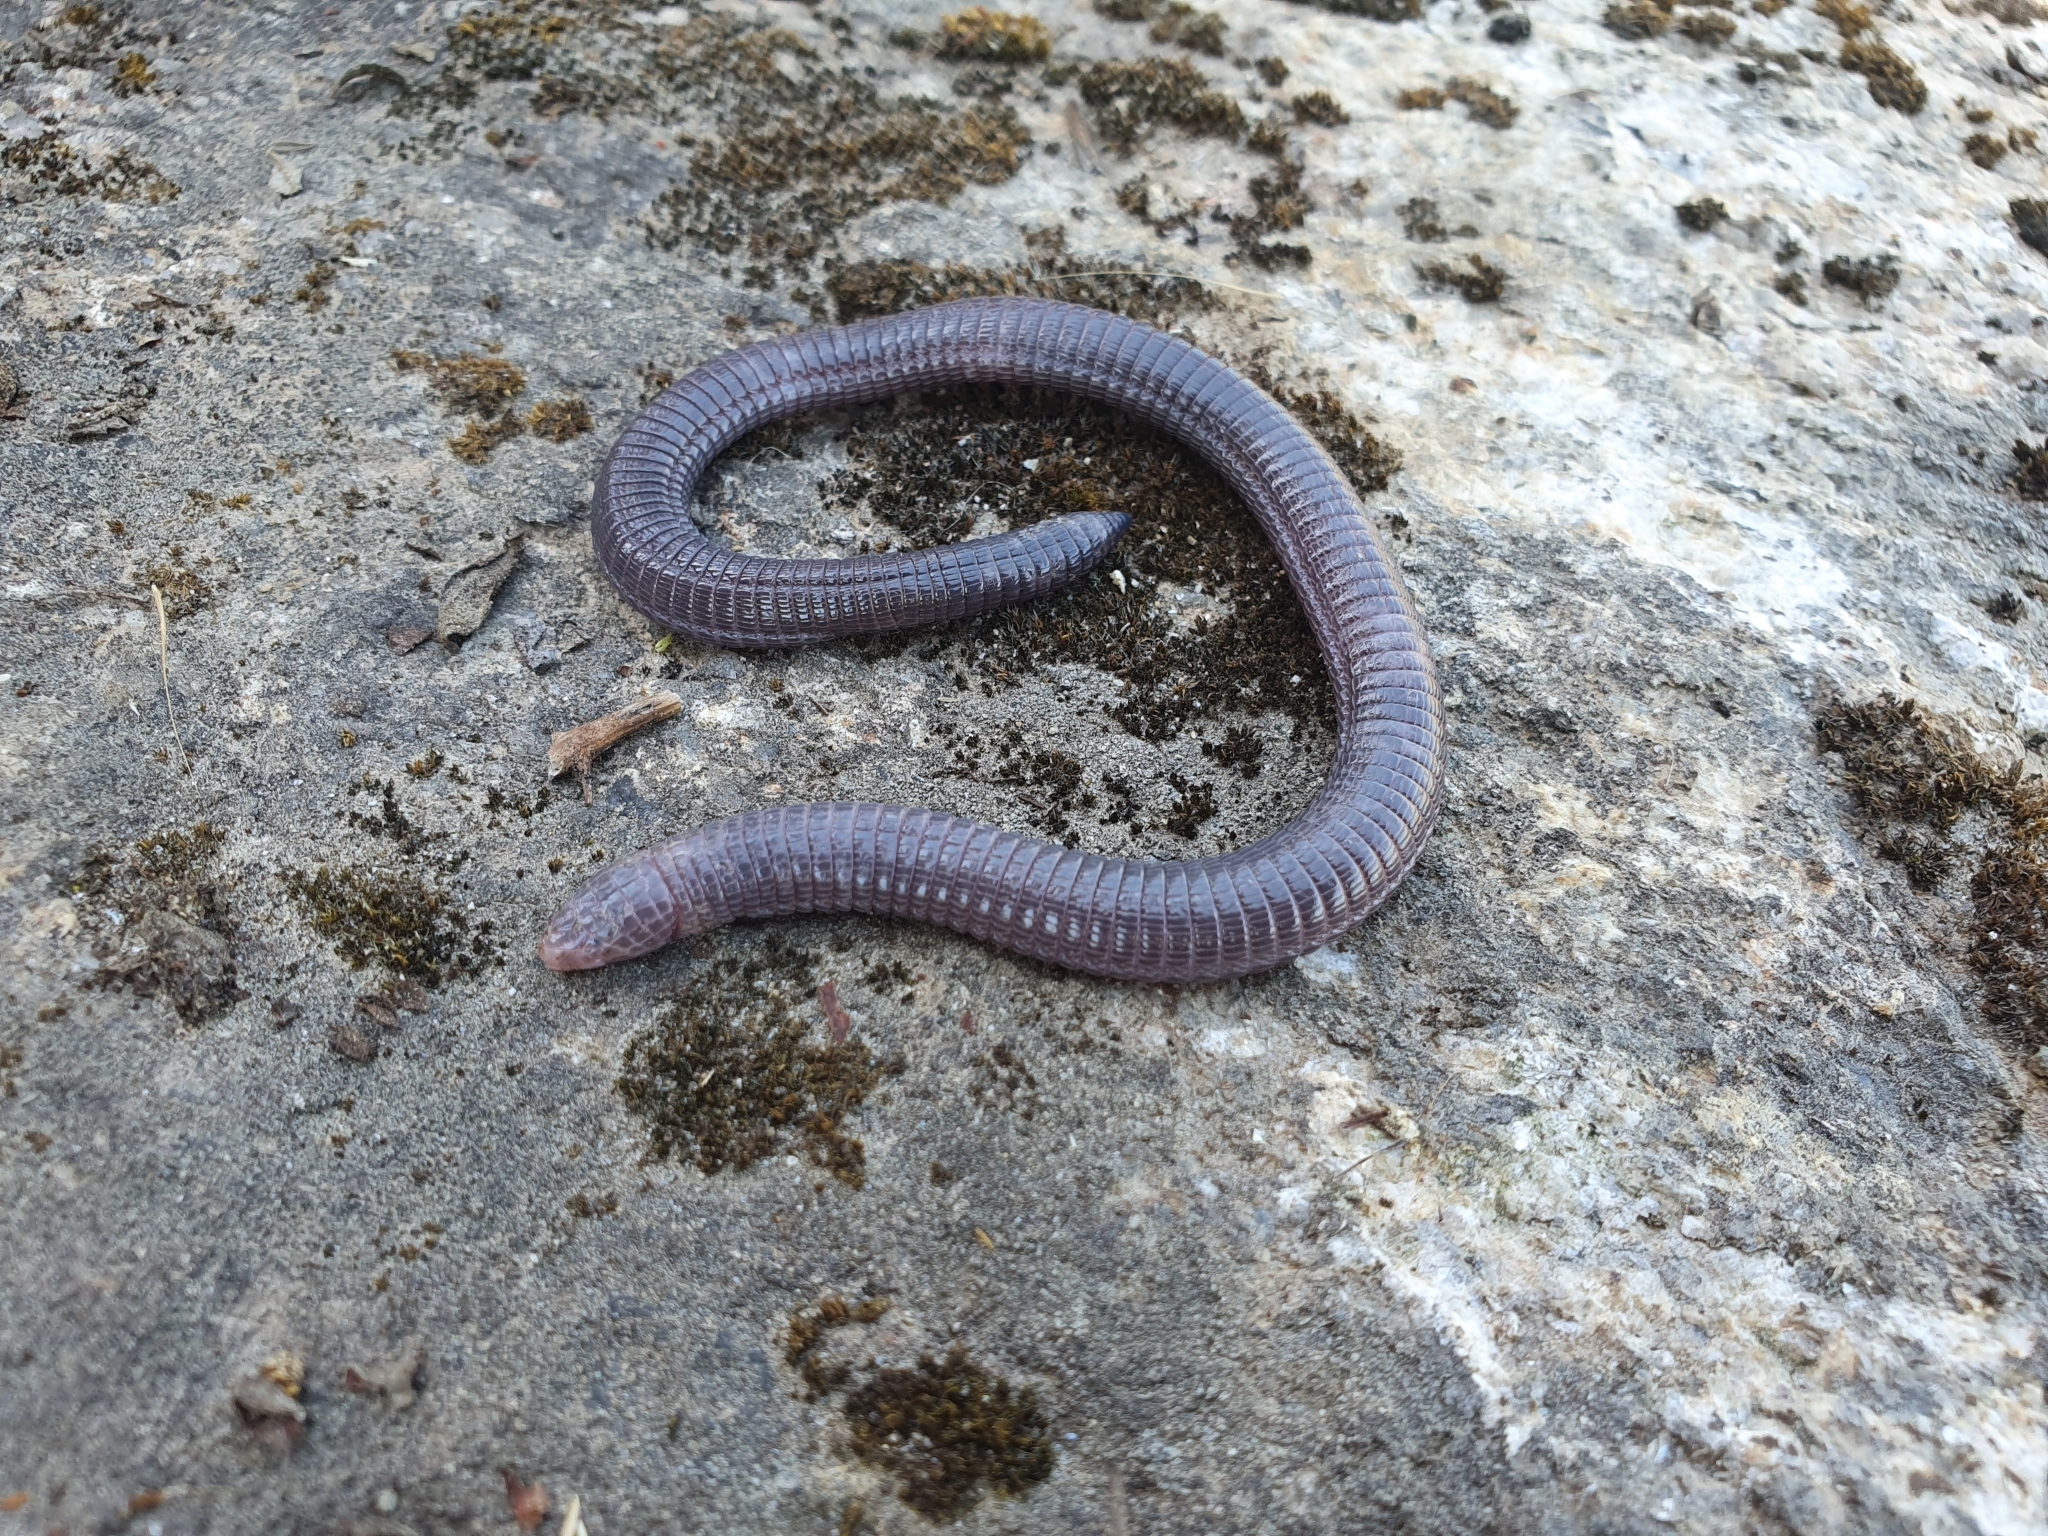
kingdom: Animalia
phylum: Chordata
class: Squamata
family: Blanidae
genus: Blanus
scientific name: Blanus vandellii
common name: Vandelli's worm lizard
